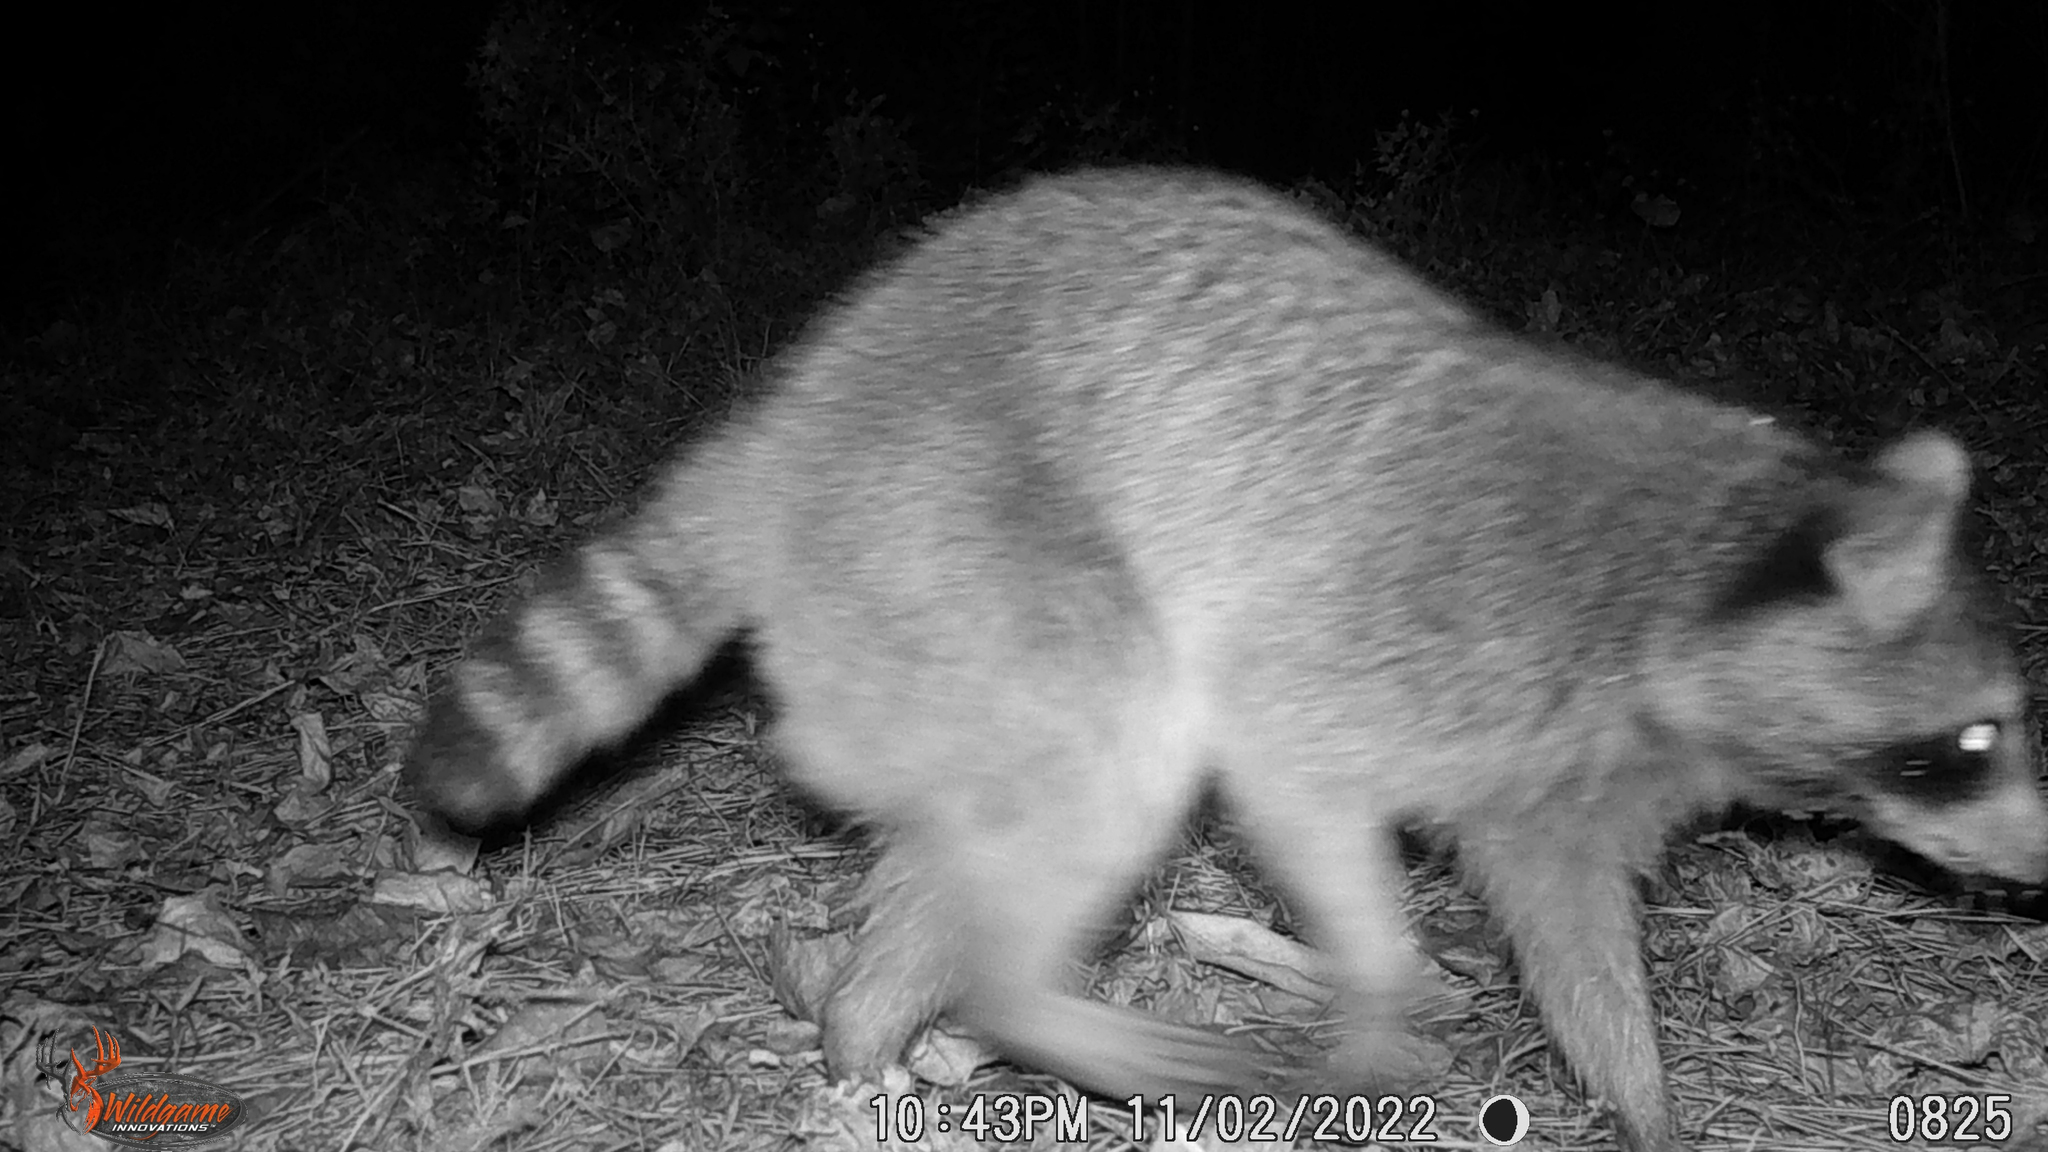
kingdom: Animalia
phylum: Chordata
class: Mammalia
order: Carnivora
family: Procyonidae
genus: Procyon
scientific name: Procyon lotor
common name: Raccoon
